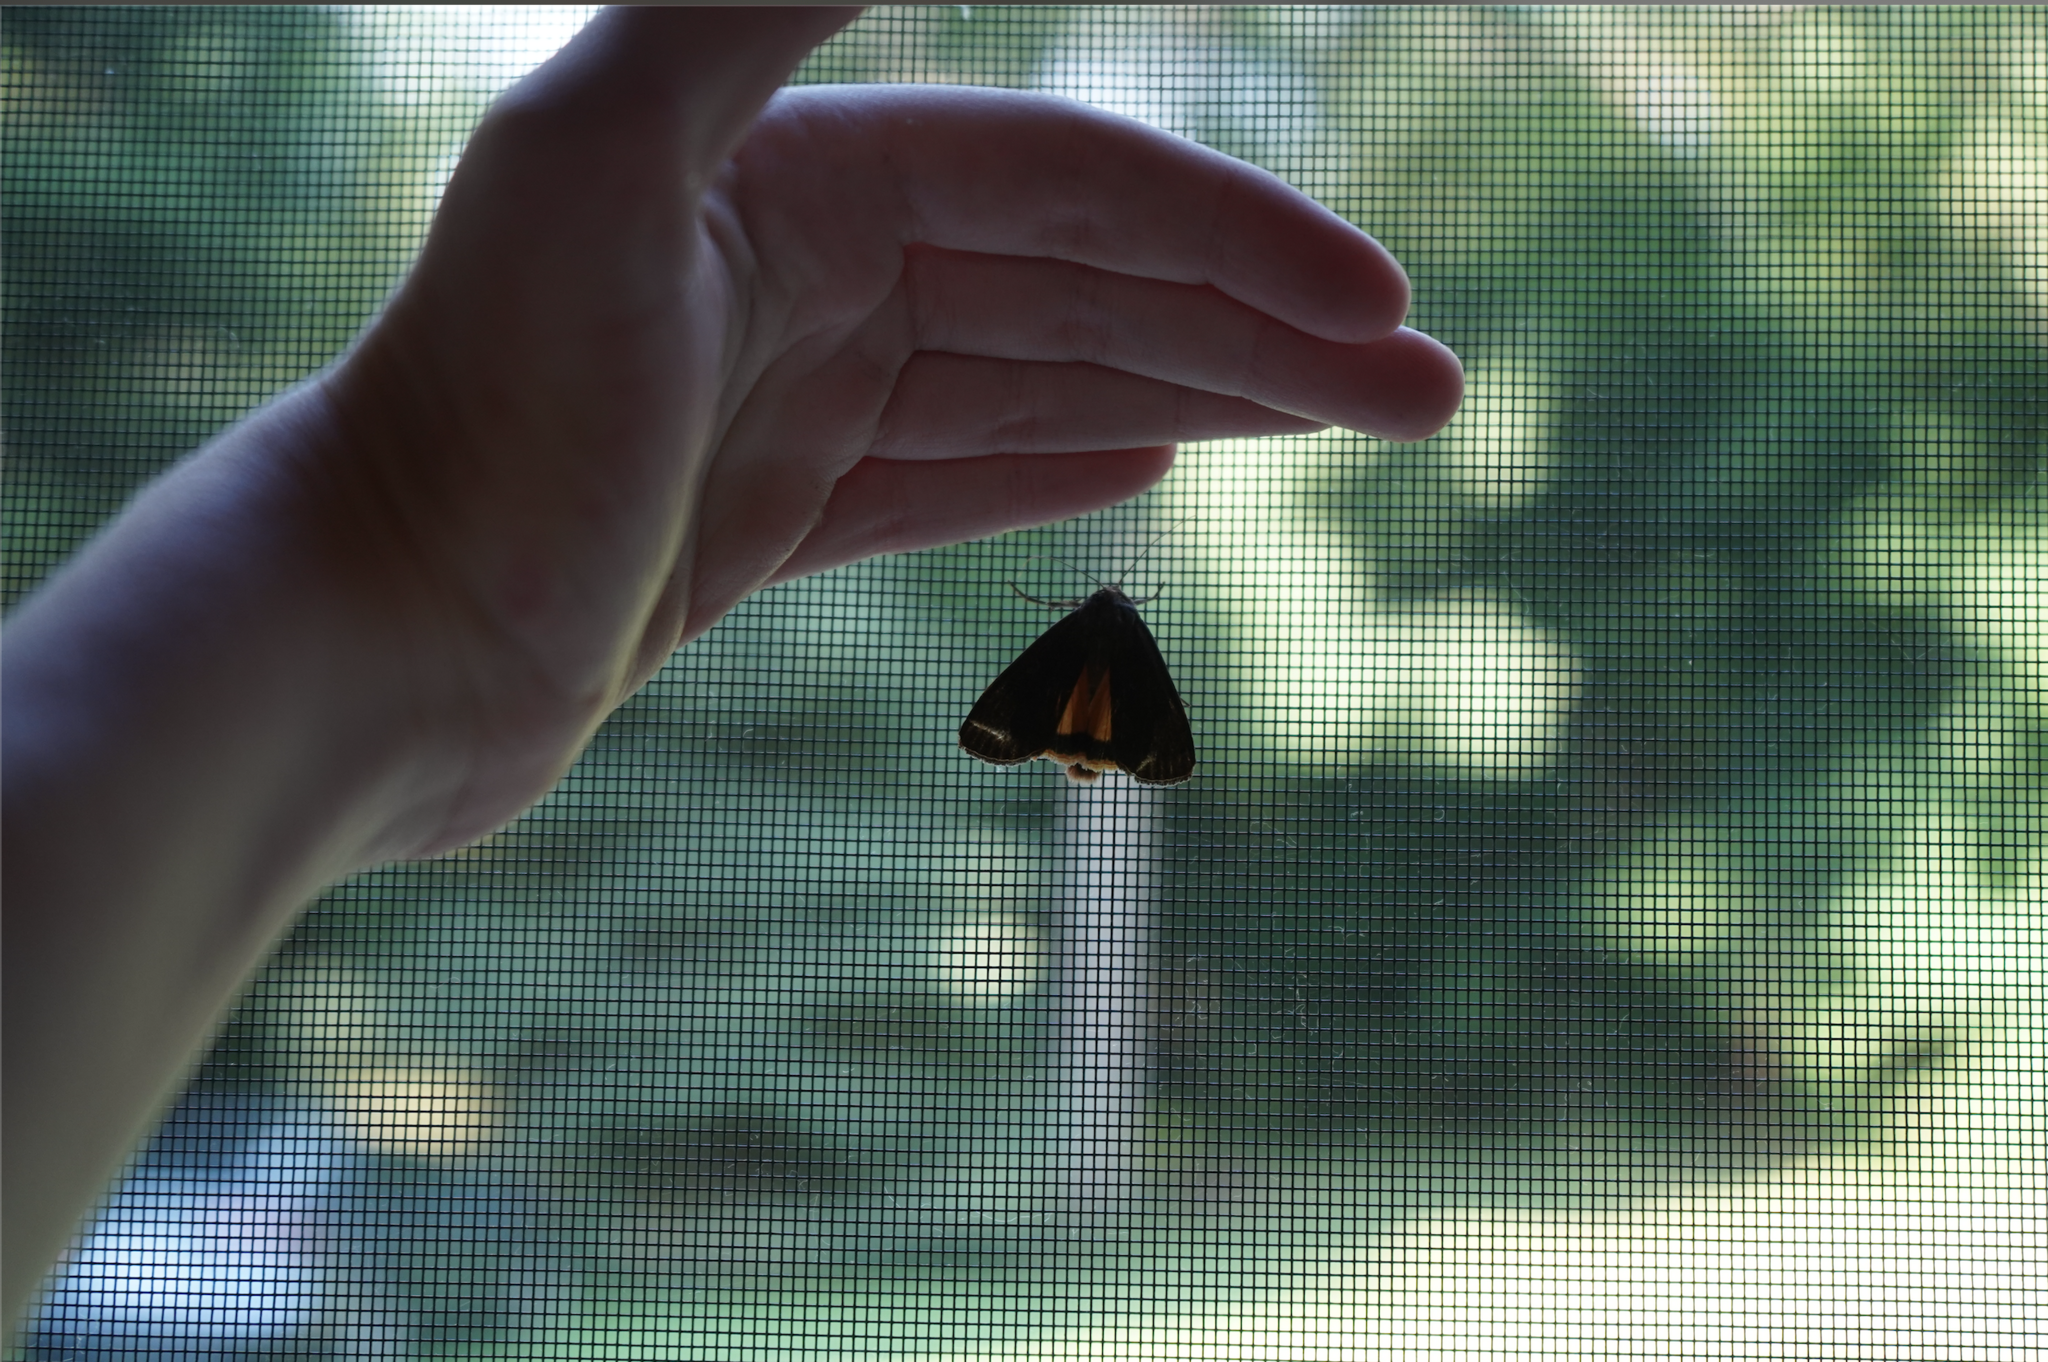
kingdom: Animalia
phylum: Arthropoda
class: Insecta
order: Lepidoptera
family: Noctuidae
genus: Noctua
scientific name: Noctua pronuba
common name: Large yellow underwing
